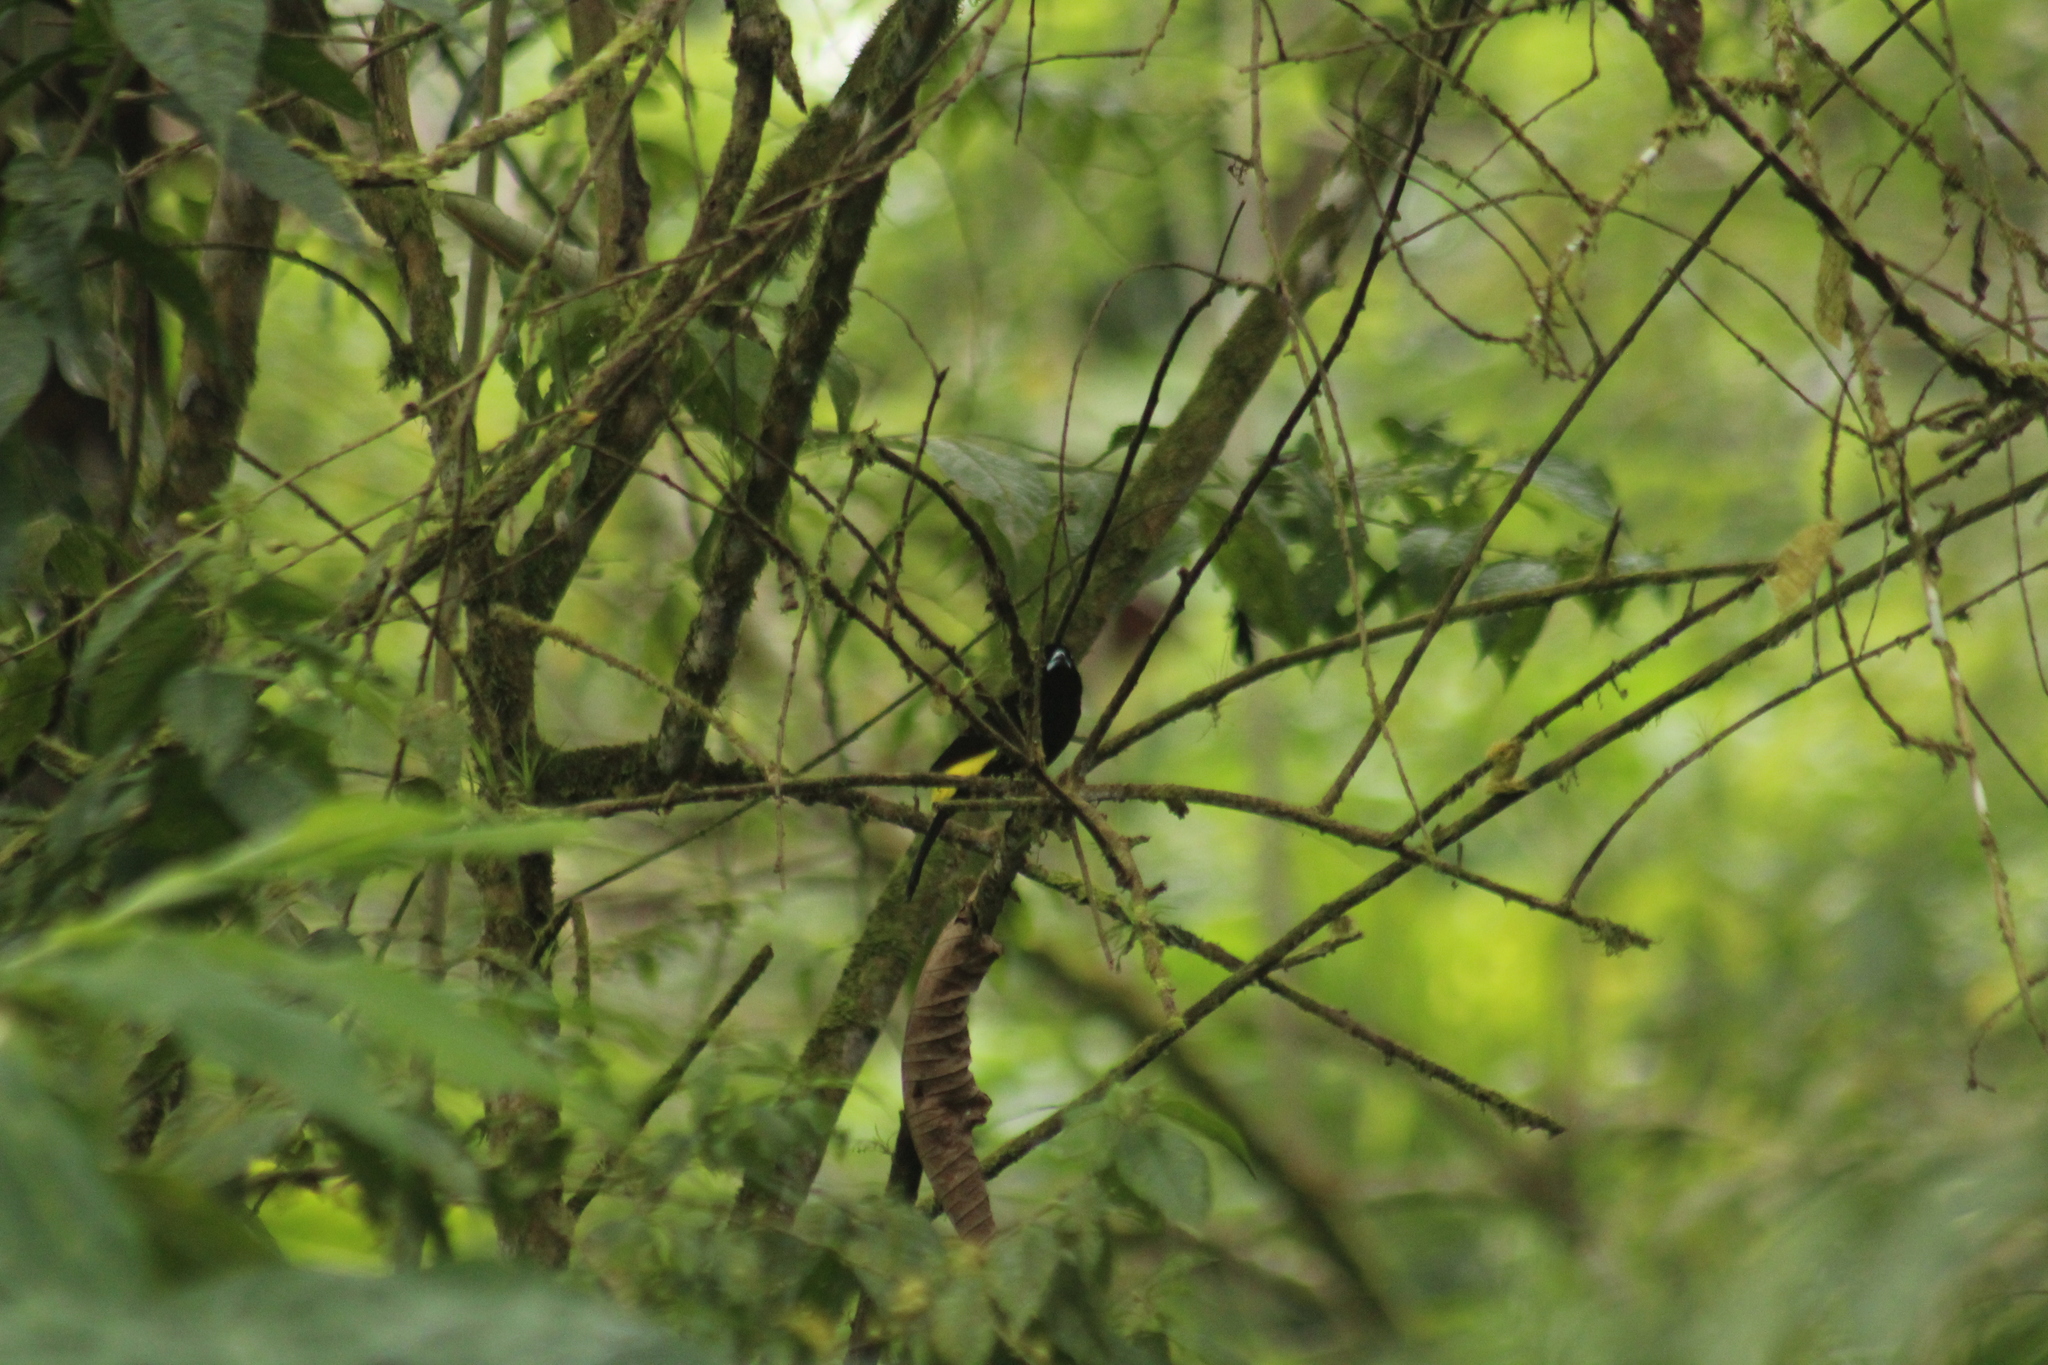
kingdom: Animalia
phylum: Chordata
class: Aves
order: Passeriformes
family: Thraupidae
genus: Ramphocelus
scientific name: Ramphocelus icteronotus
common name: Lemon-rumped tanager
